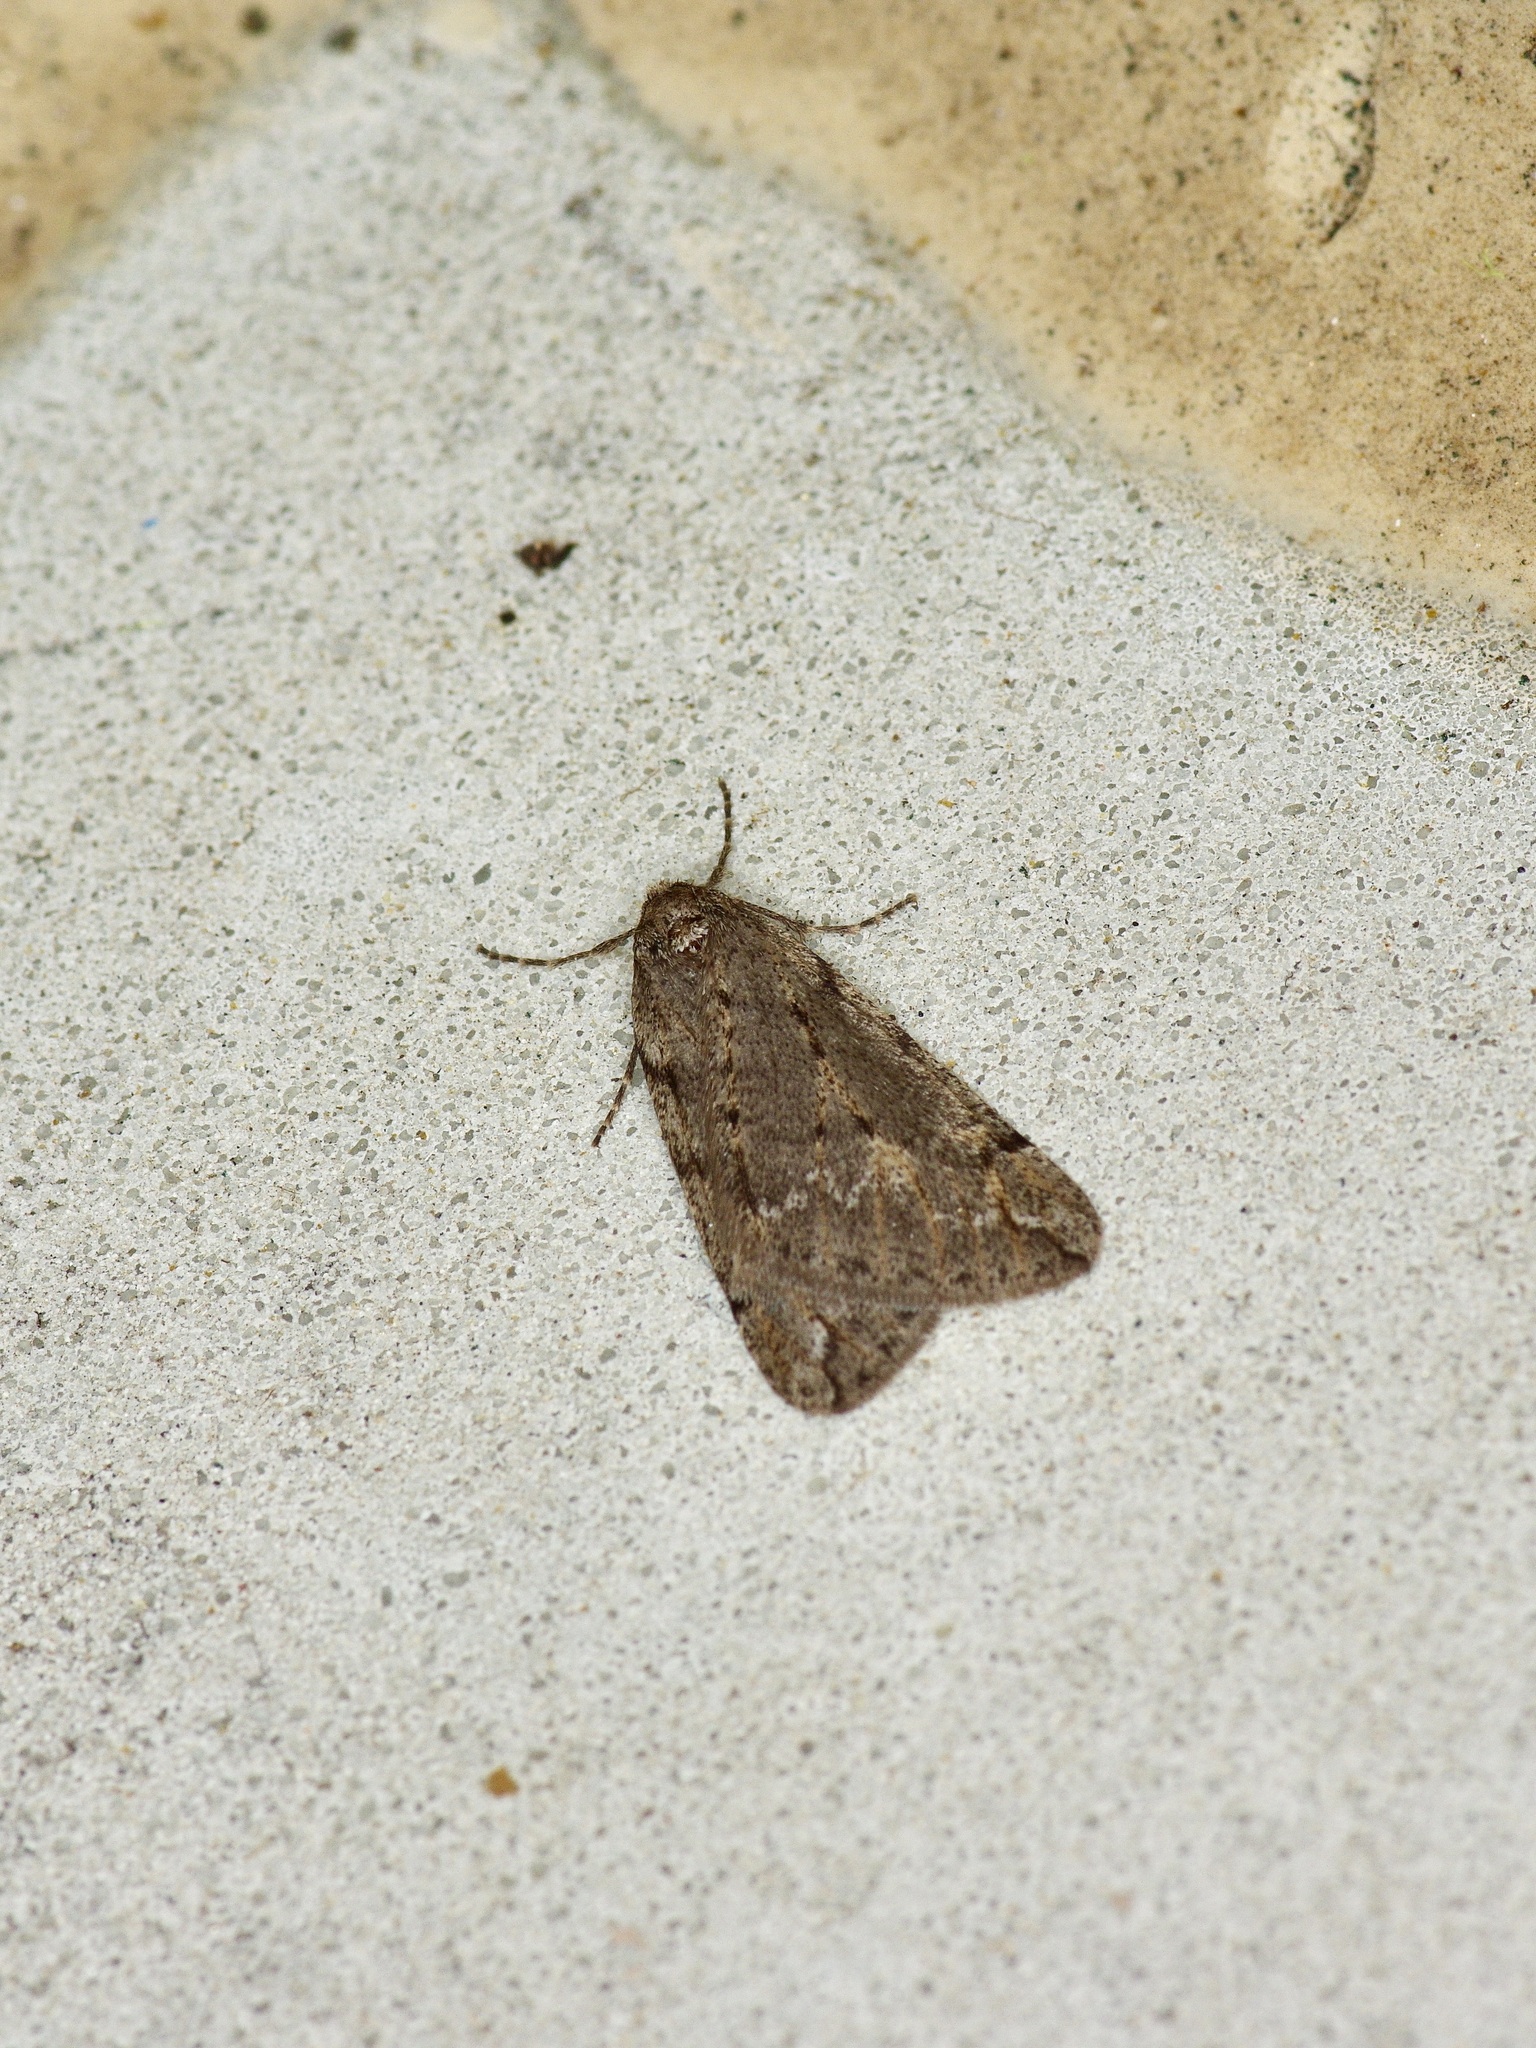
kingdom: Animalia
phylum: Arthropoda
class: Insecta
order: Lepidoptera
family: Geometridae
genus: Paleacrita
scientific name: Paleacrita vernata
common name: Spring cankerworm
